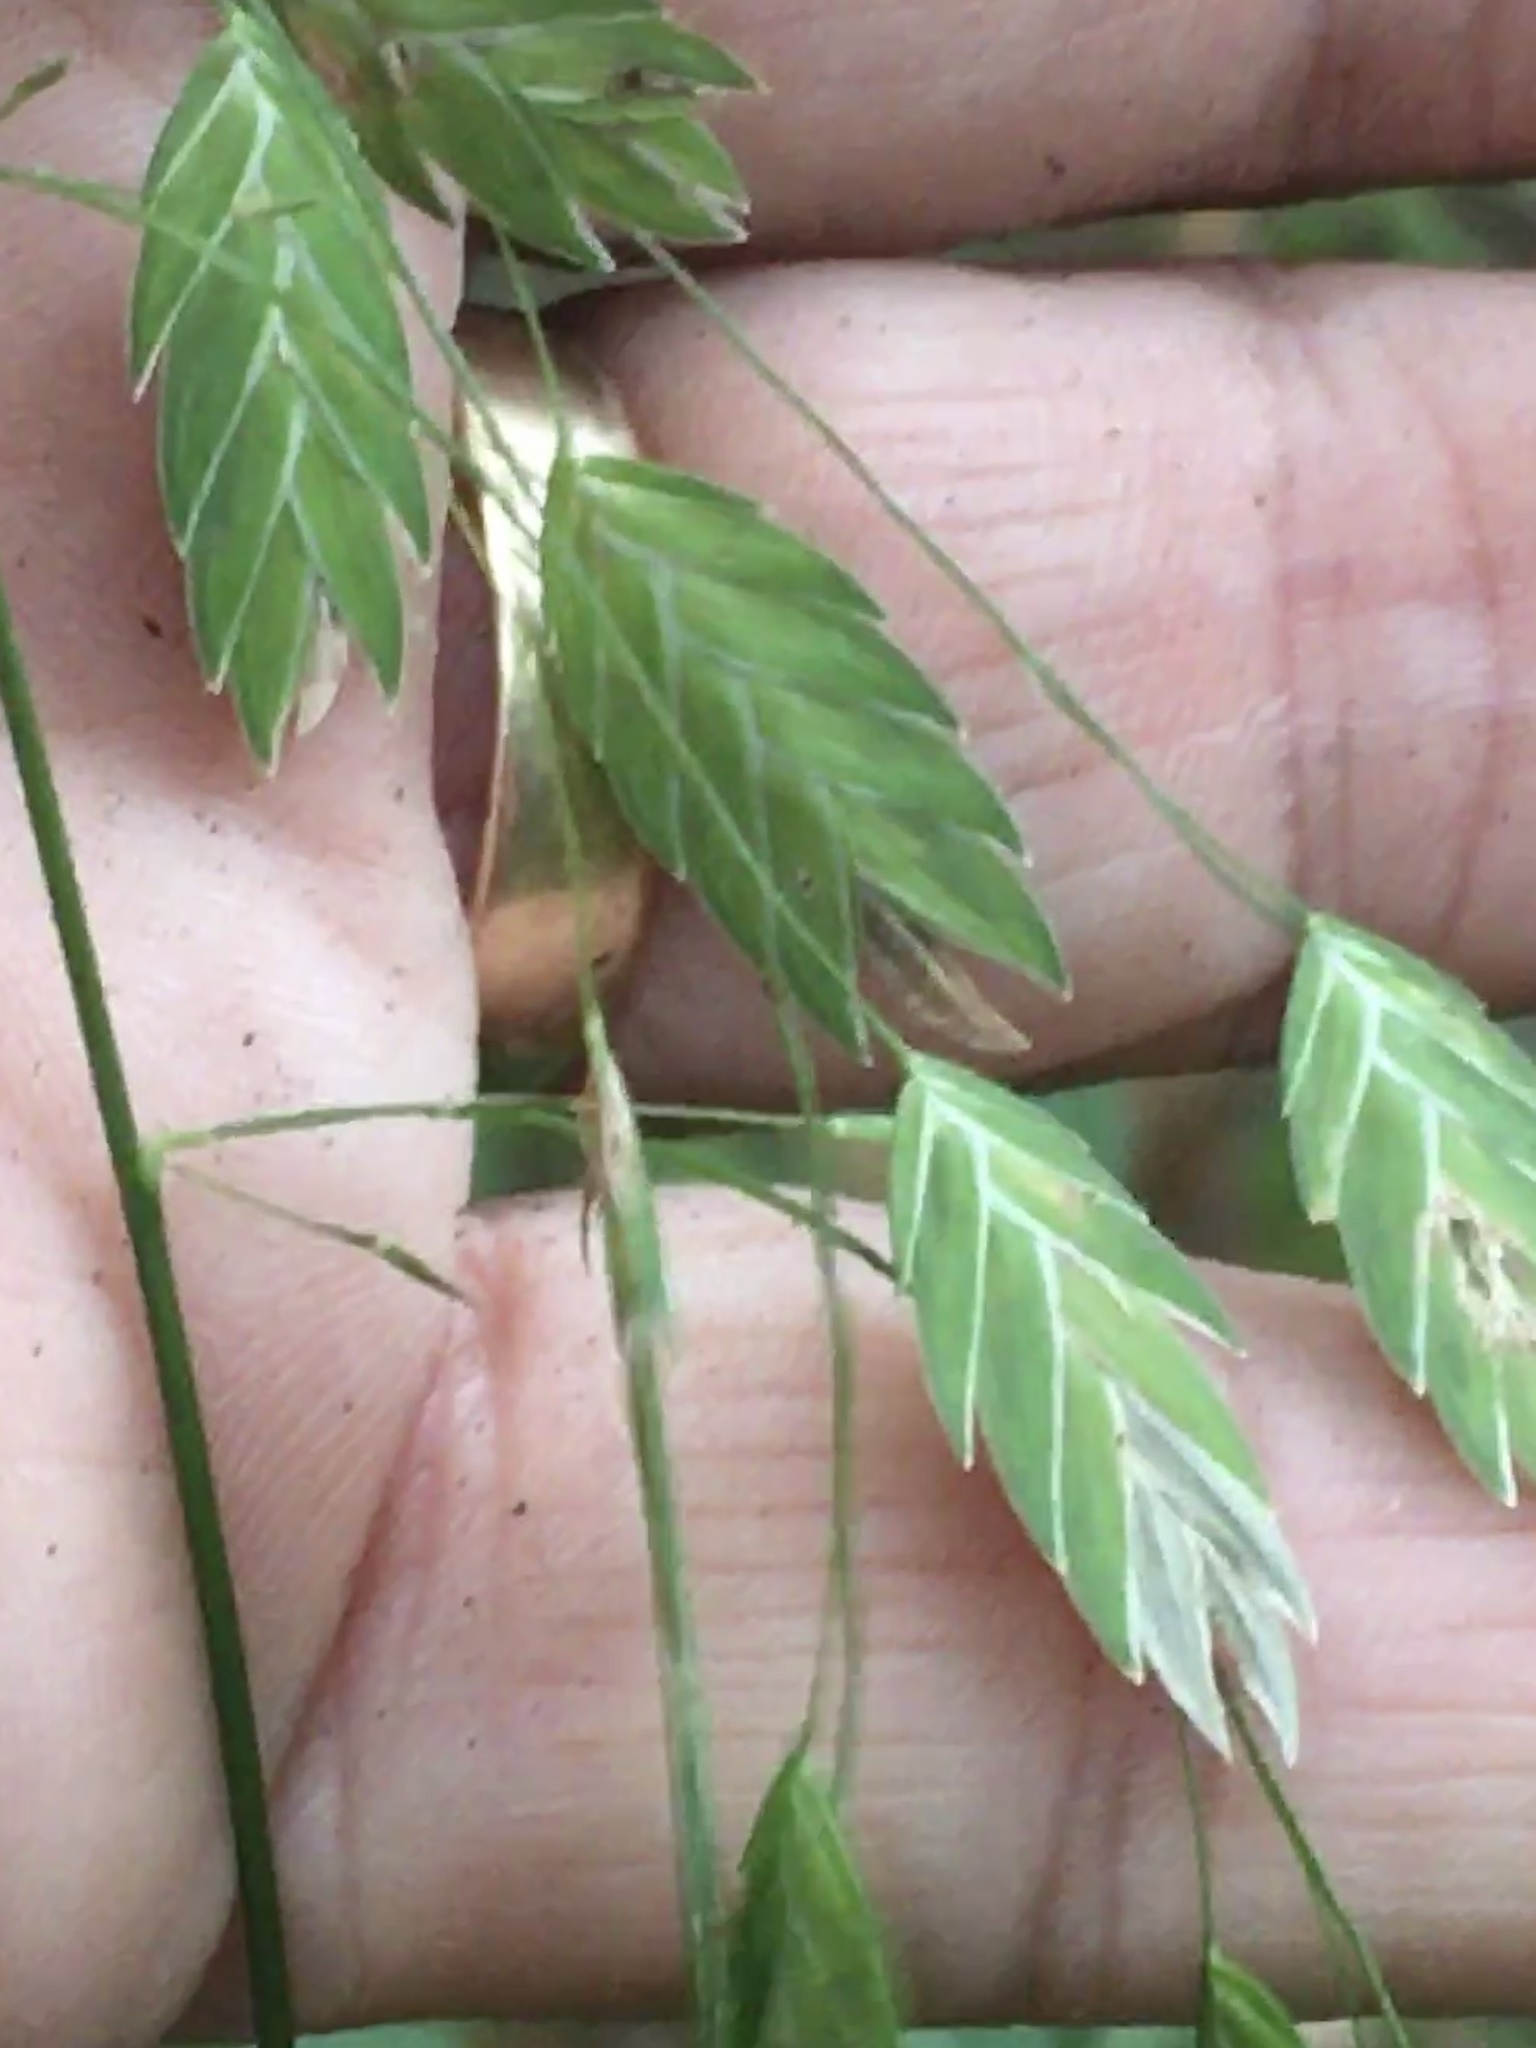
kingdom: Plantae
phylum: Tracheophyta
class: Liliopsida
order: Poales
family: Poaceae
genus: Chasmanthium
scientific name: Chasmanthium latifolium
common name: Broad-leaved chasmanthium
